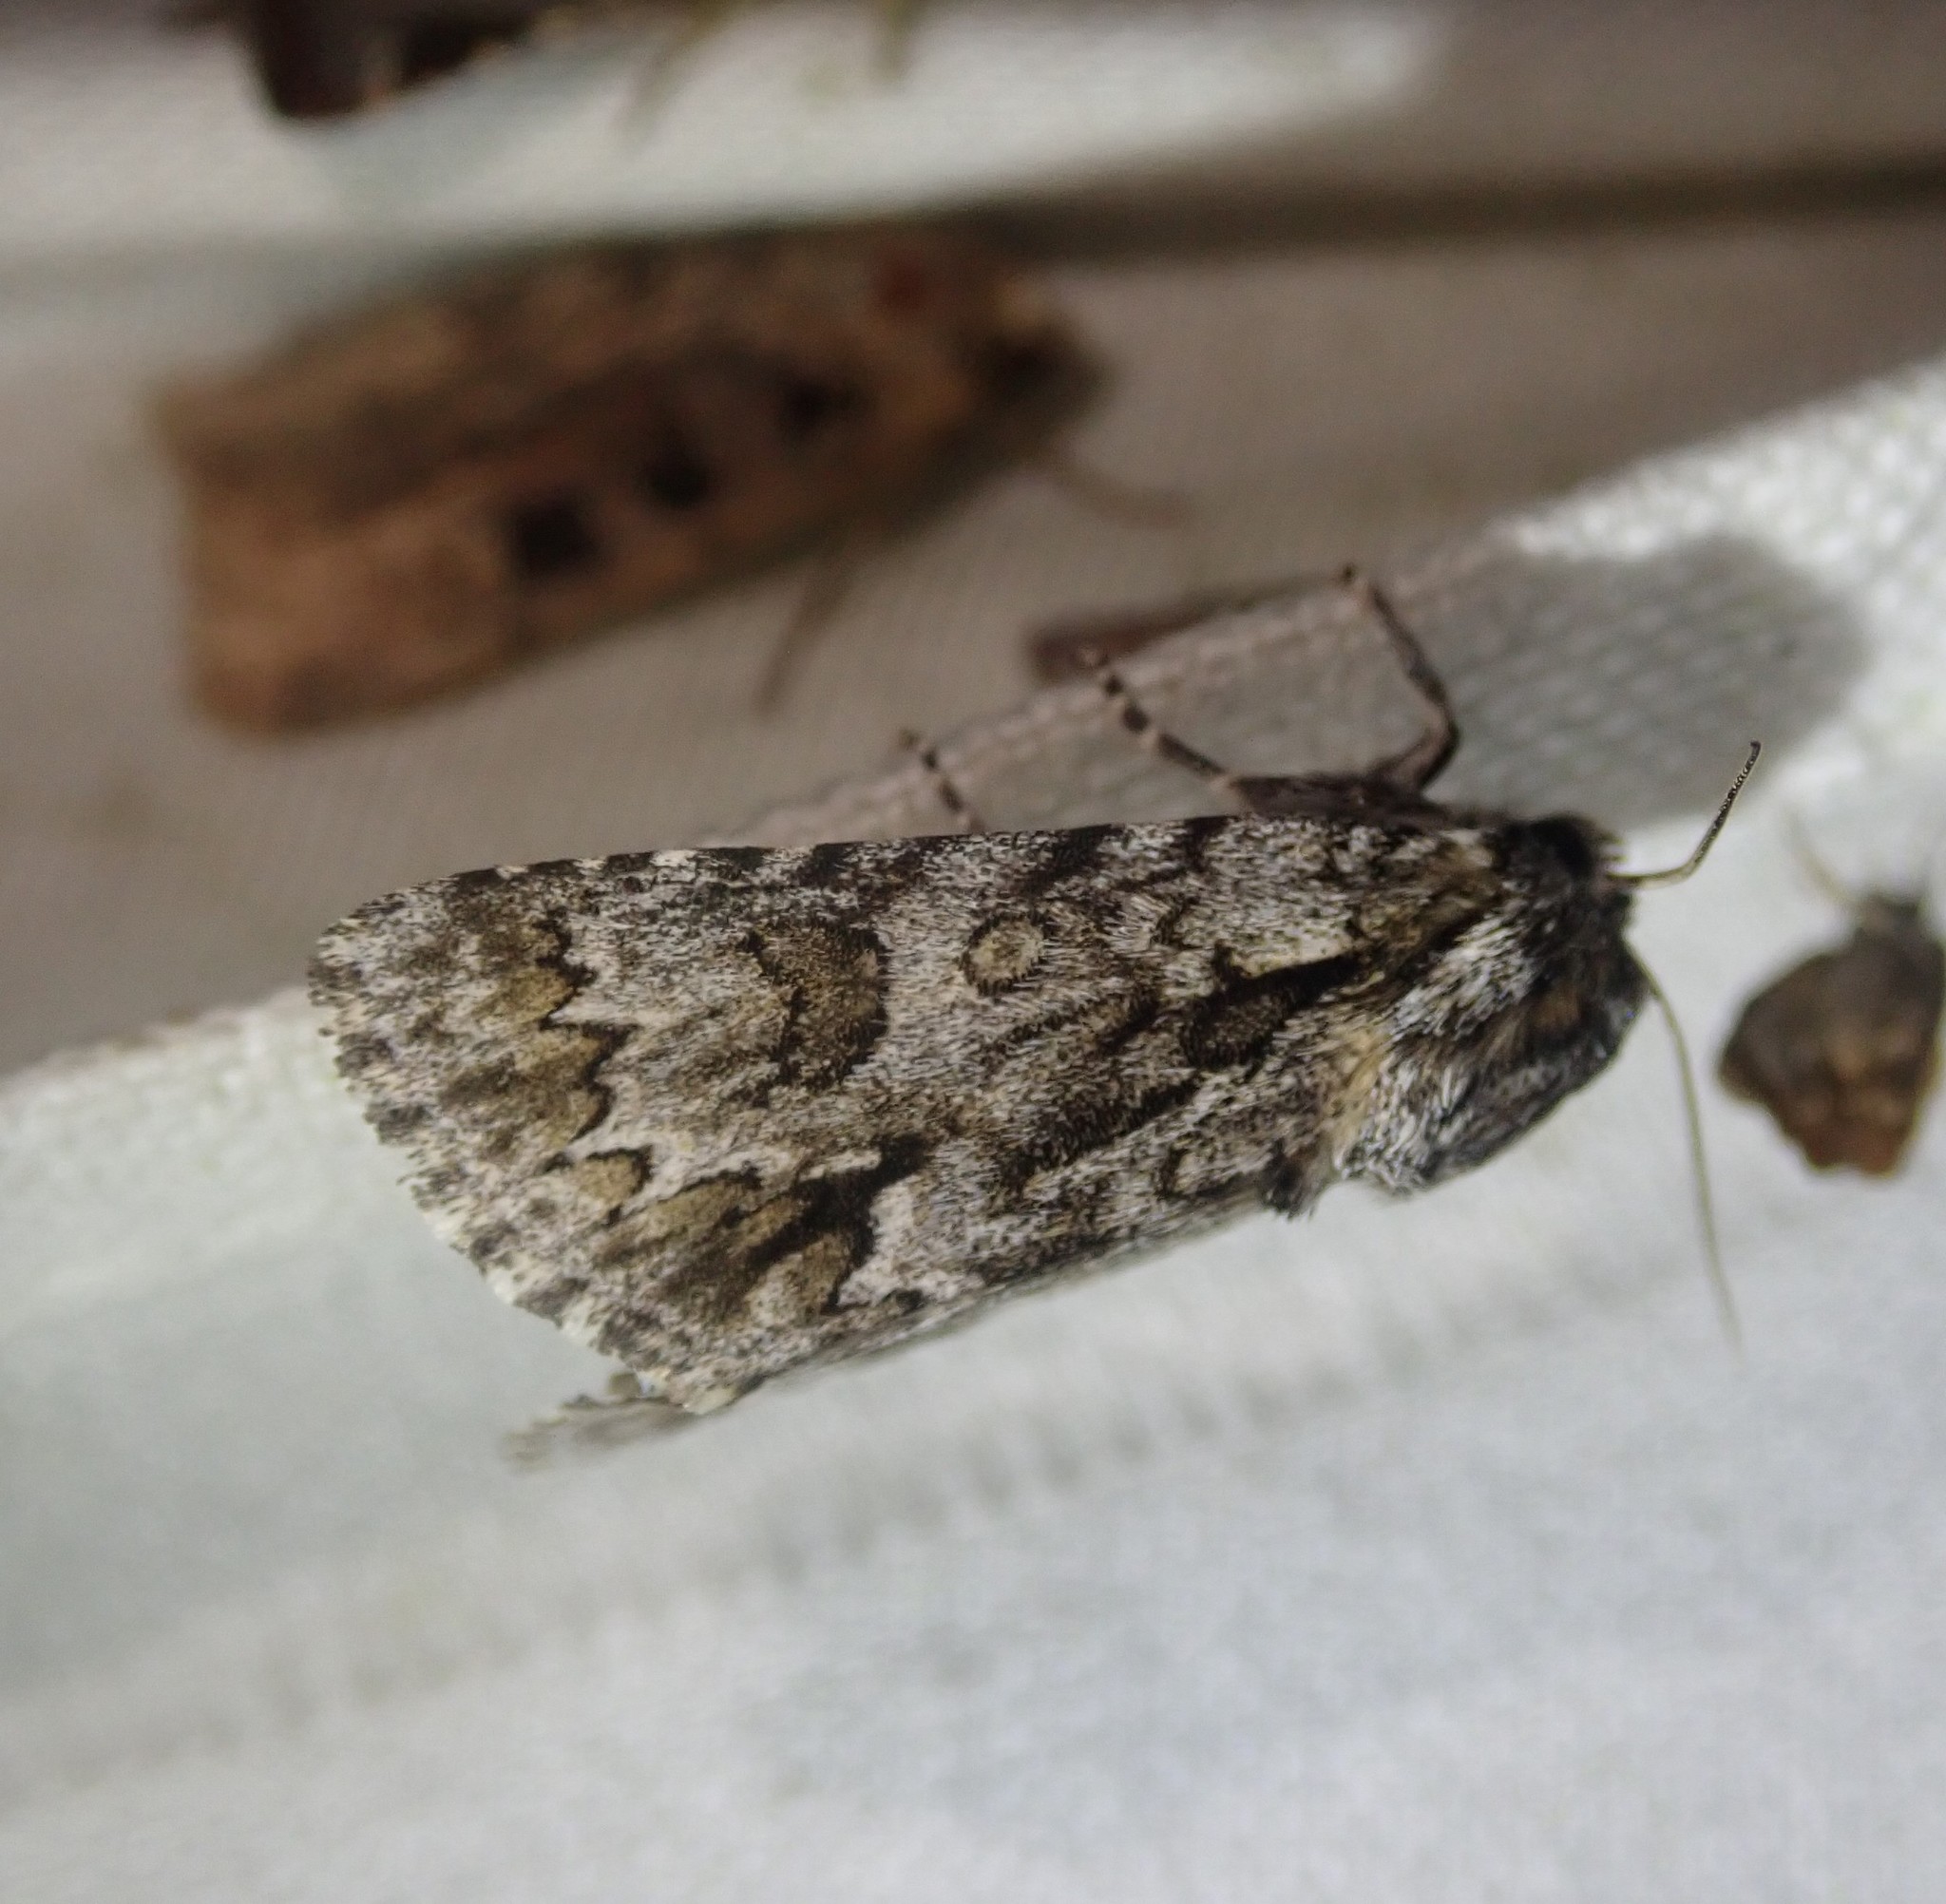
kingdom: Animalia
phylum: Arthropoda
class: Insecta
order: Lepidoptera
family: Noctuidae
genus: Acronicta
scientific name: Acronicta auricoma
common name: Scarce dagger
